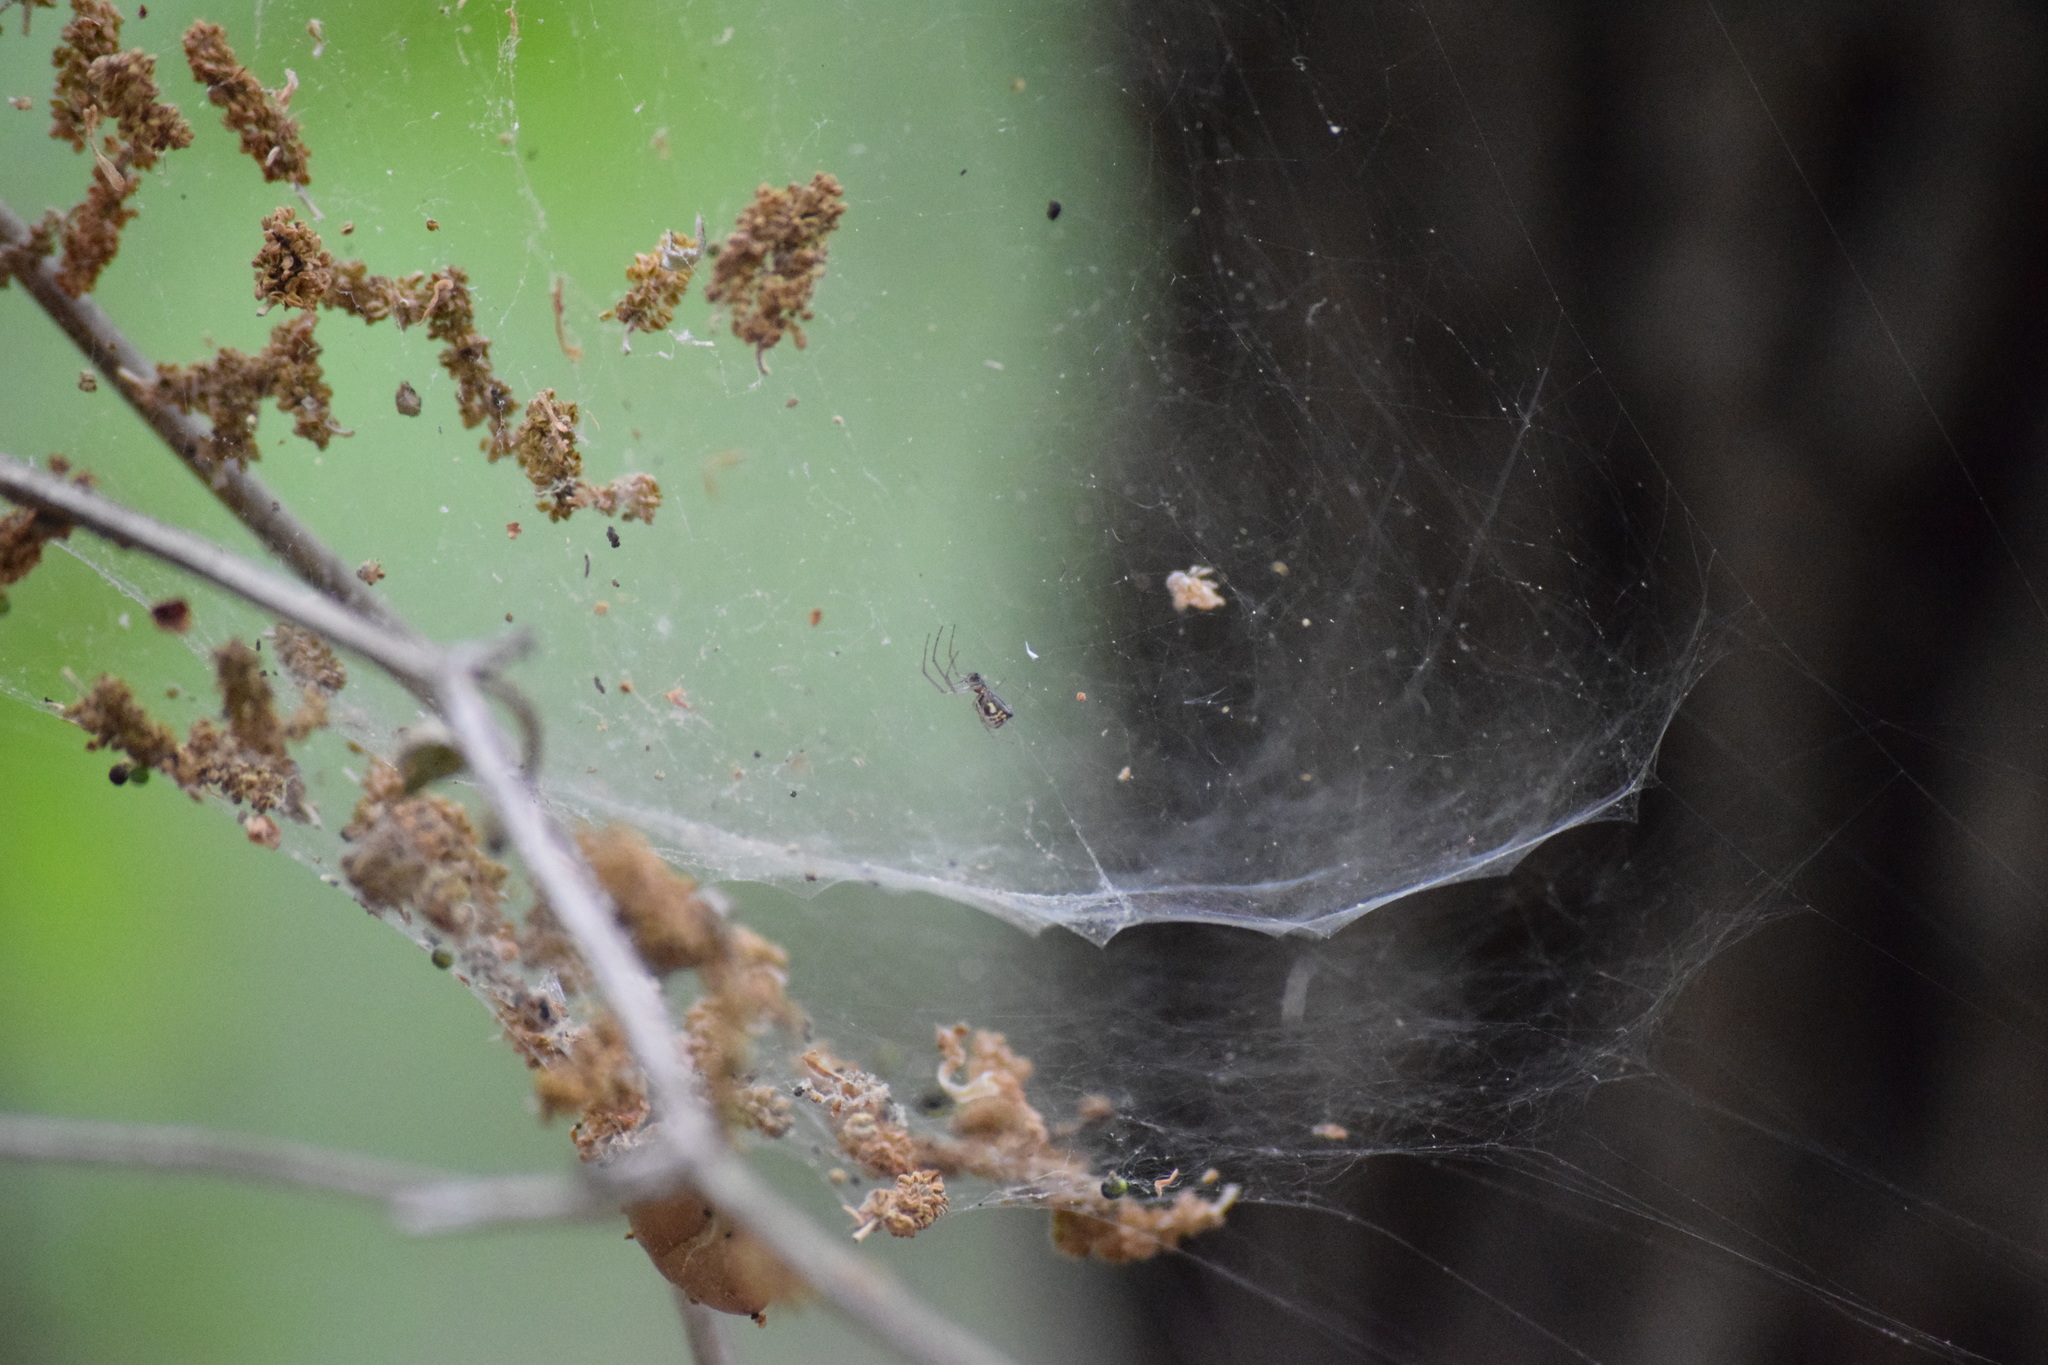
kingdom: Animalia
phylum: Arthropoda
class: Arachnida
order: Araneae
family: Linyphiidae
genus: Frontinella
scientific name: Frontinella pyramitela
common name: Bowl-and-doily spider
